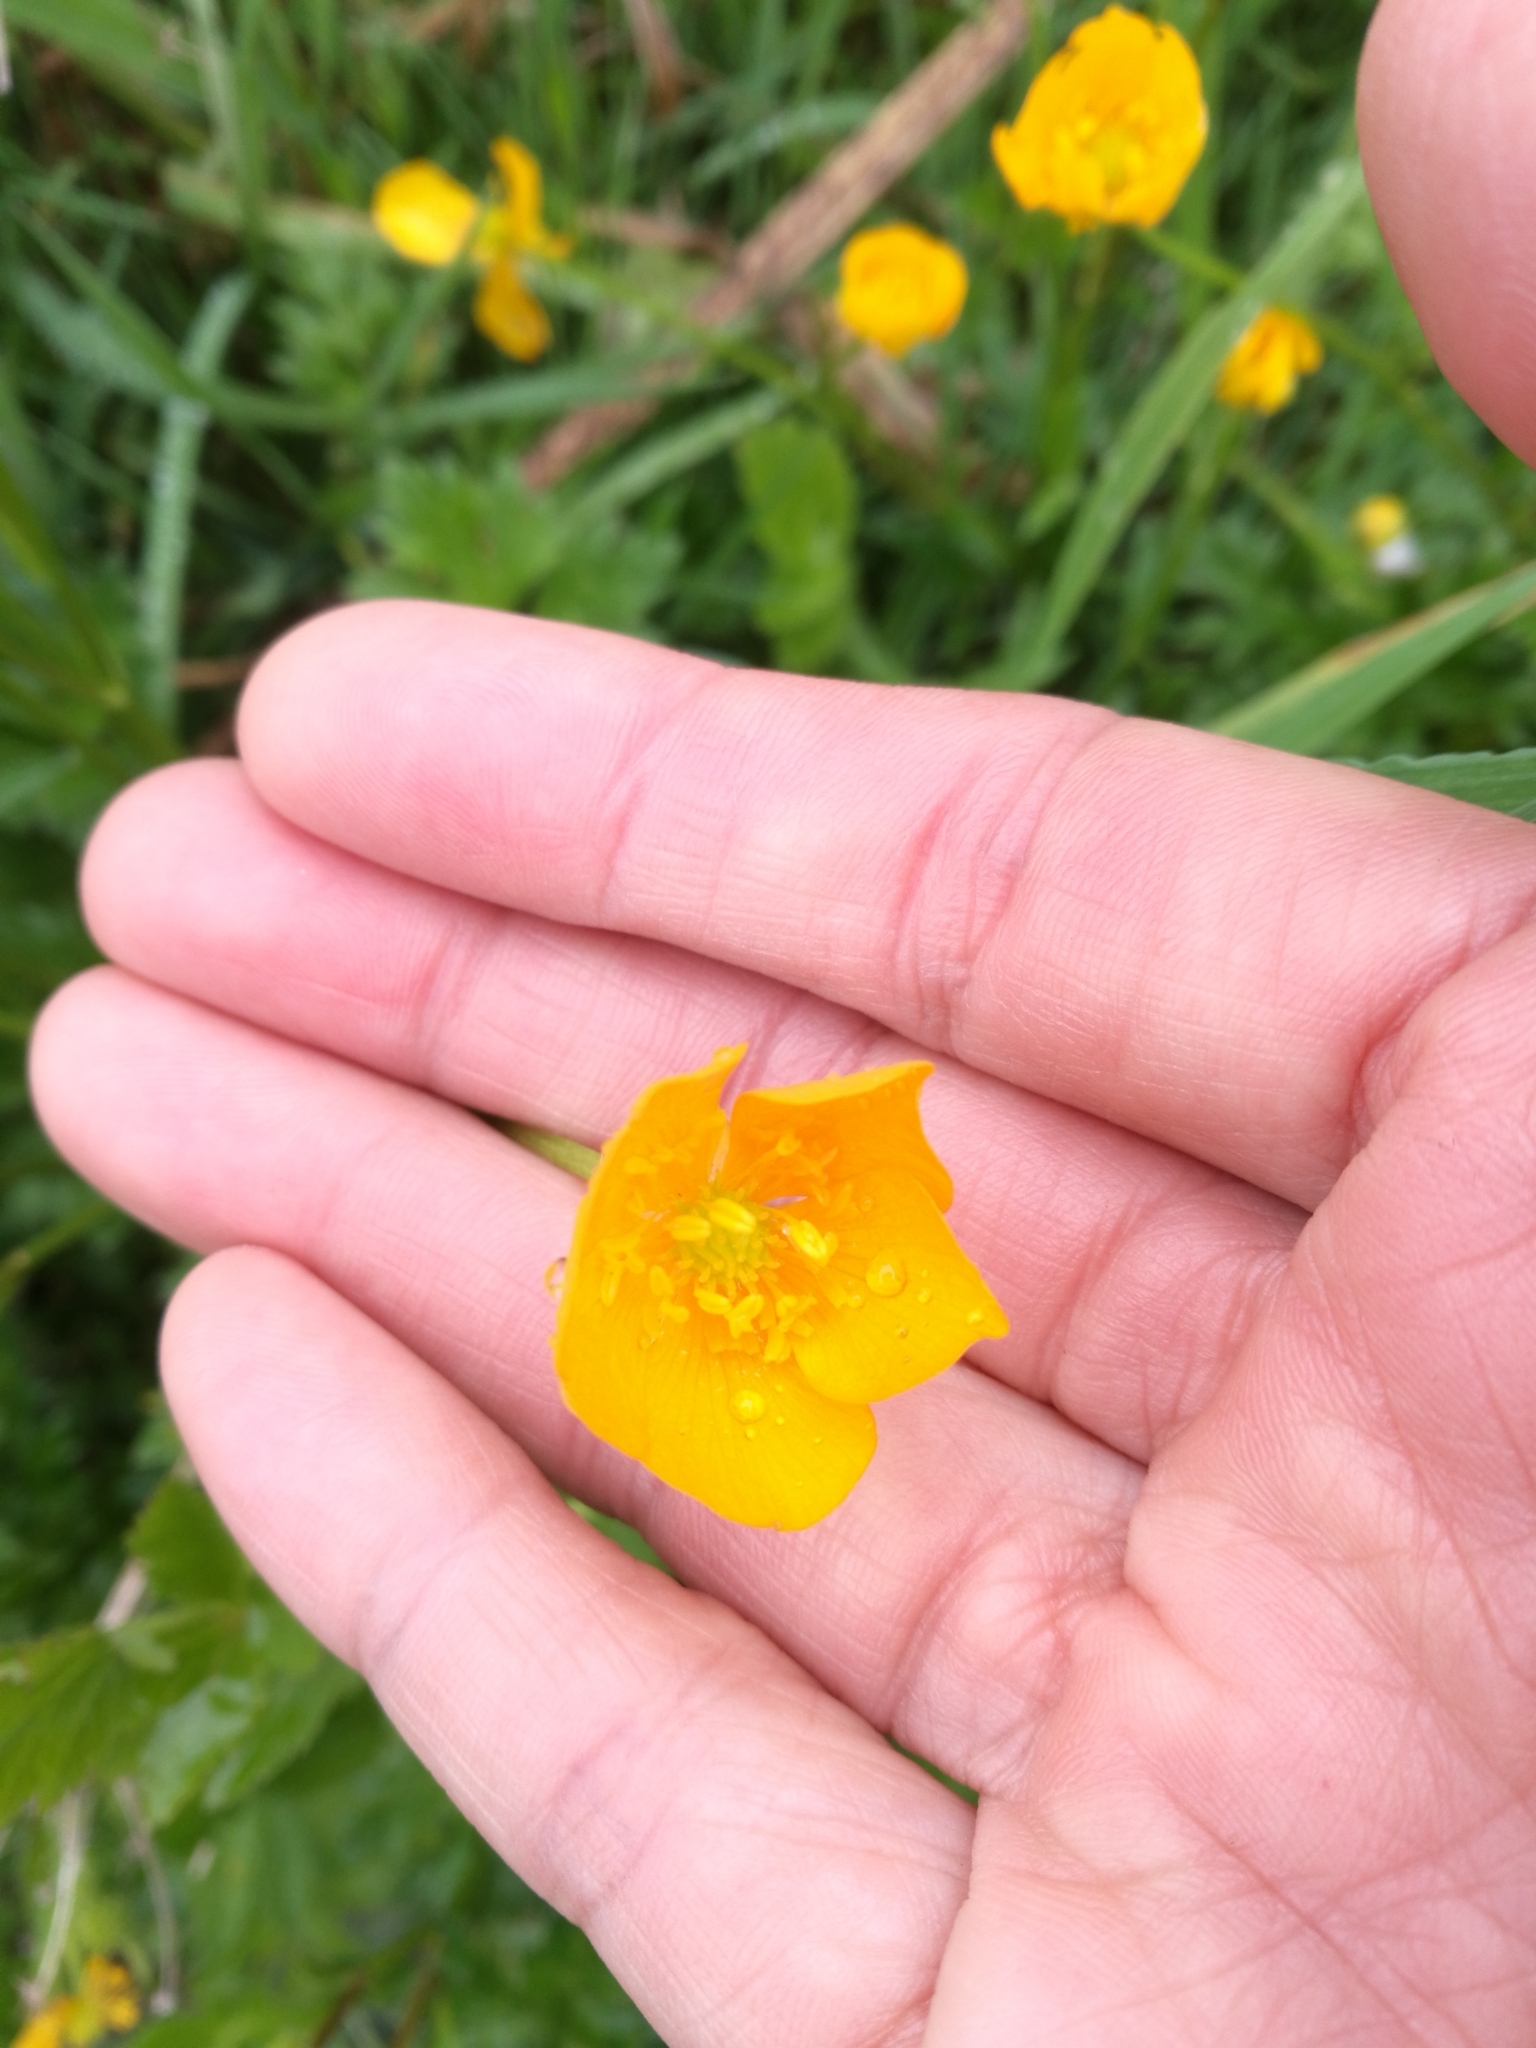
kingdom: Plantae
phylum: Tracheophyta
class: Magnoliopsida
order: Ranunculales
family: Ranunculaceae
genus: Ranunculus
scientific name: Ranunculus repens
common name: Creeping buttercup
